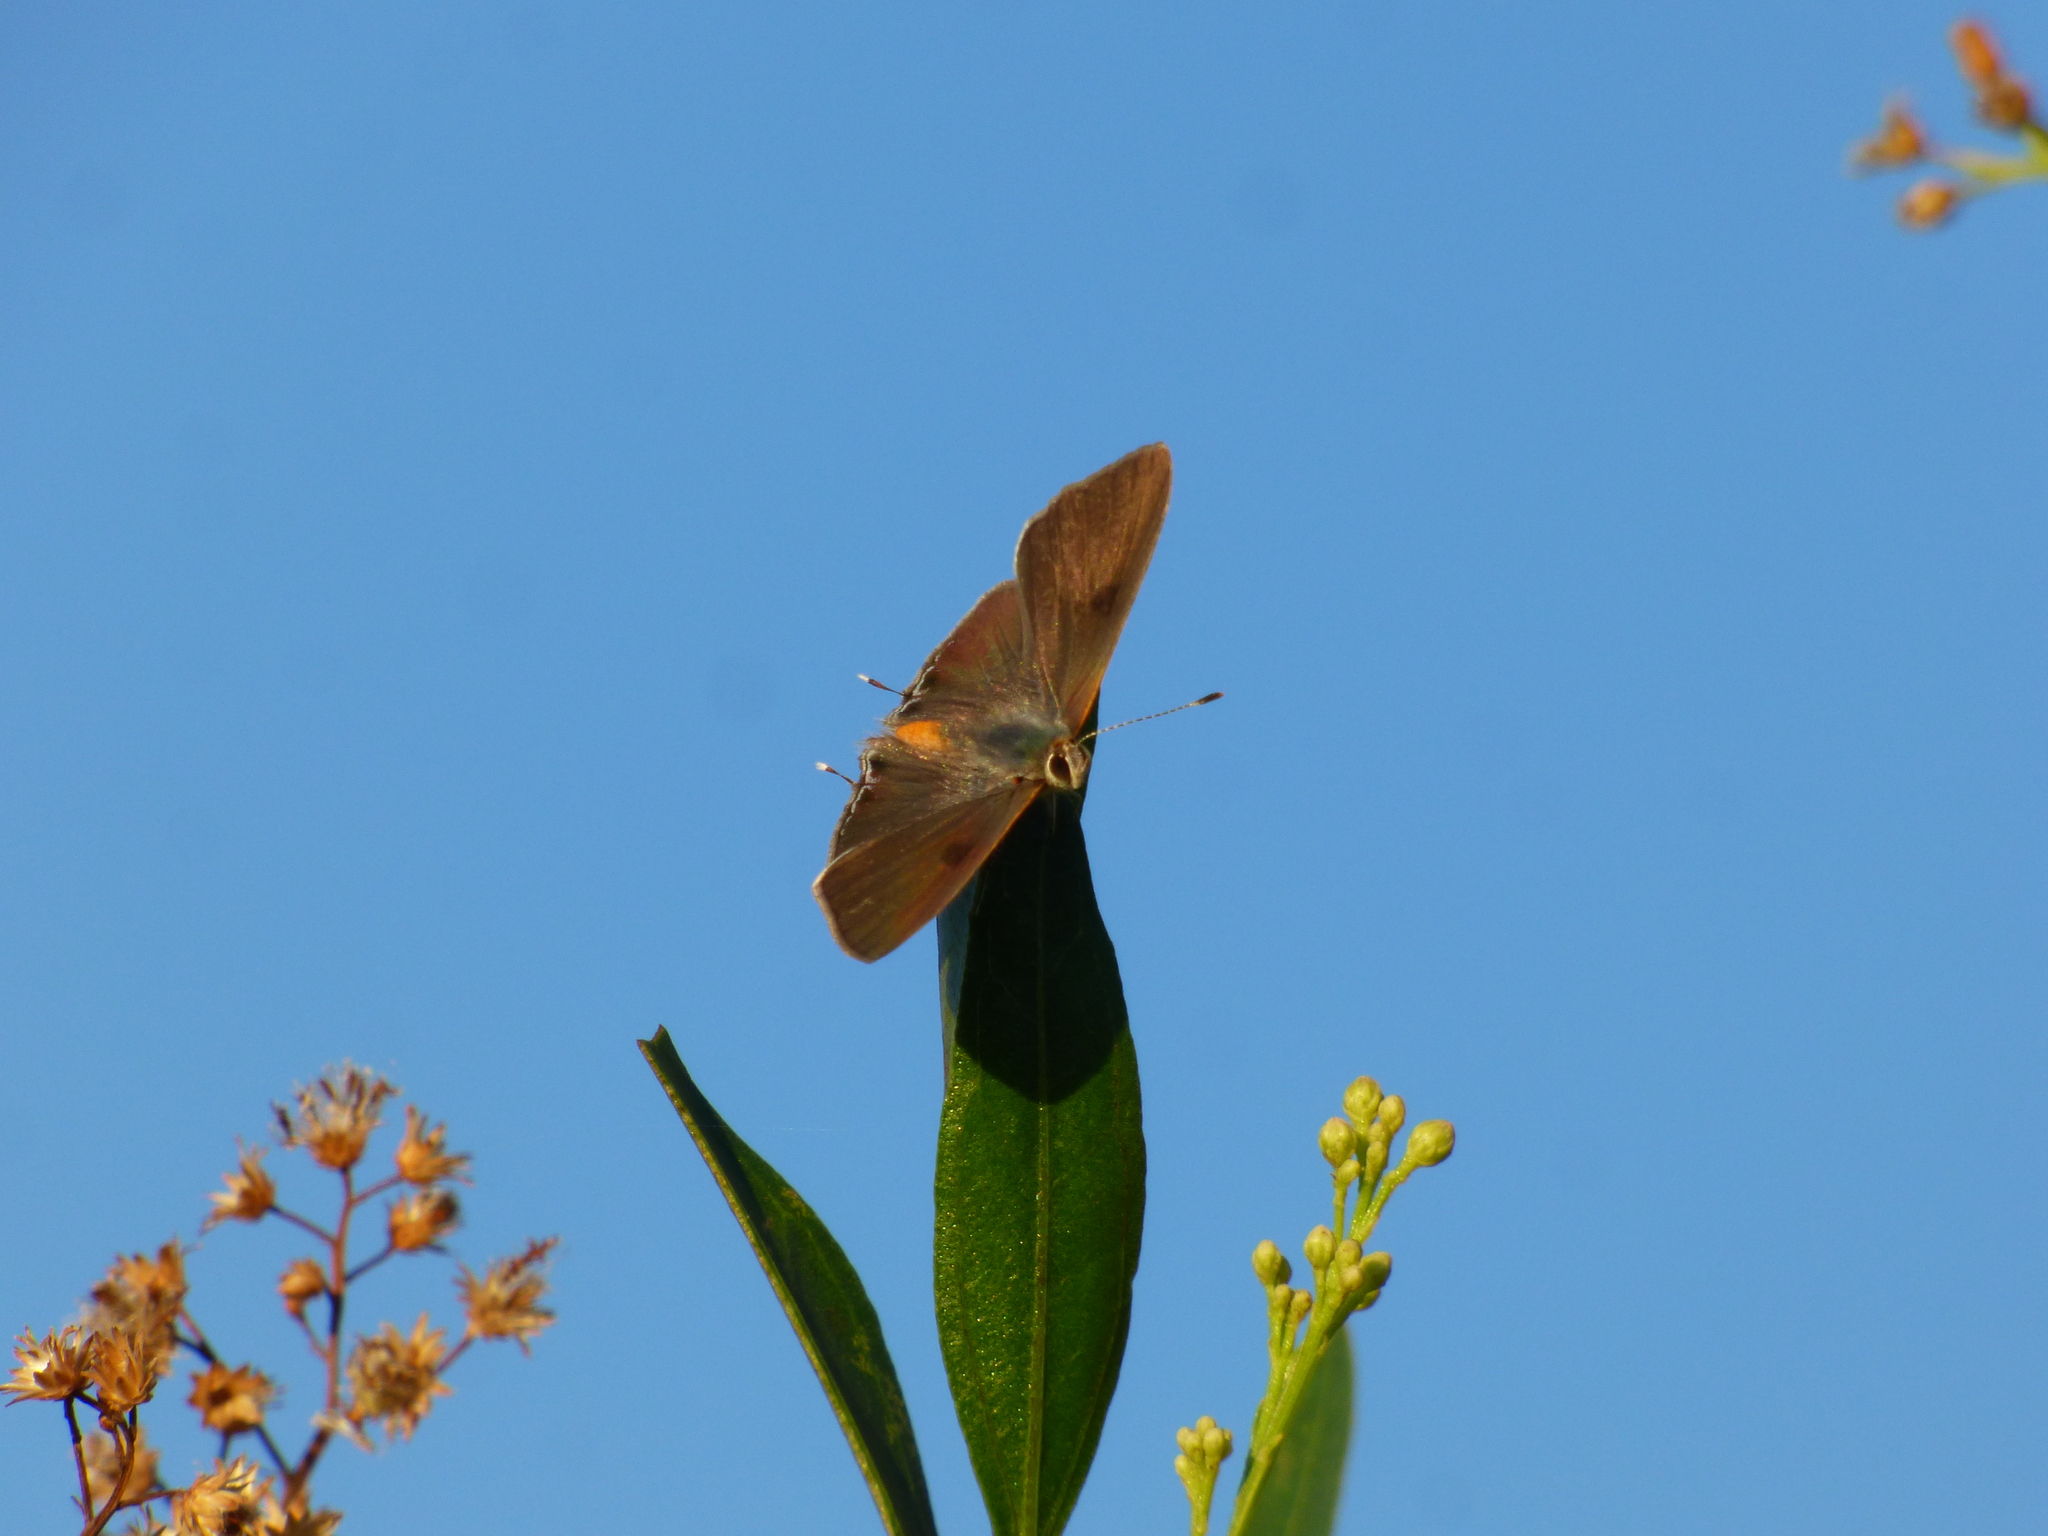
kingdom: Animalia
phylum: Arthropoda
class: Insecta
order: Lepidoptera
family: Lycaenidae
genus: Strymon
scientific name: Strymon eurytulus
